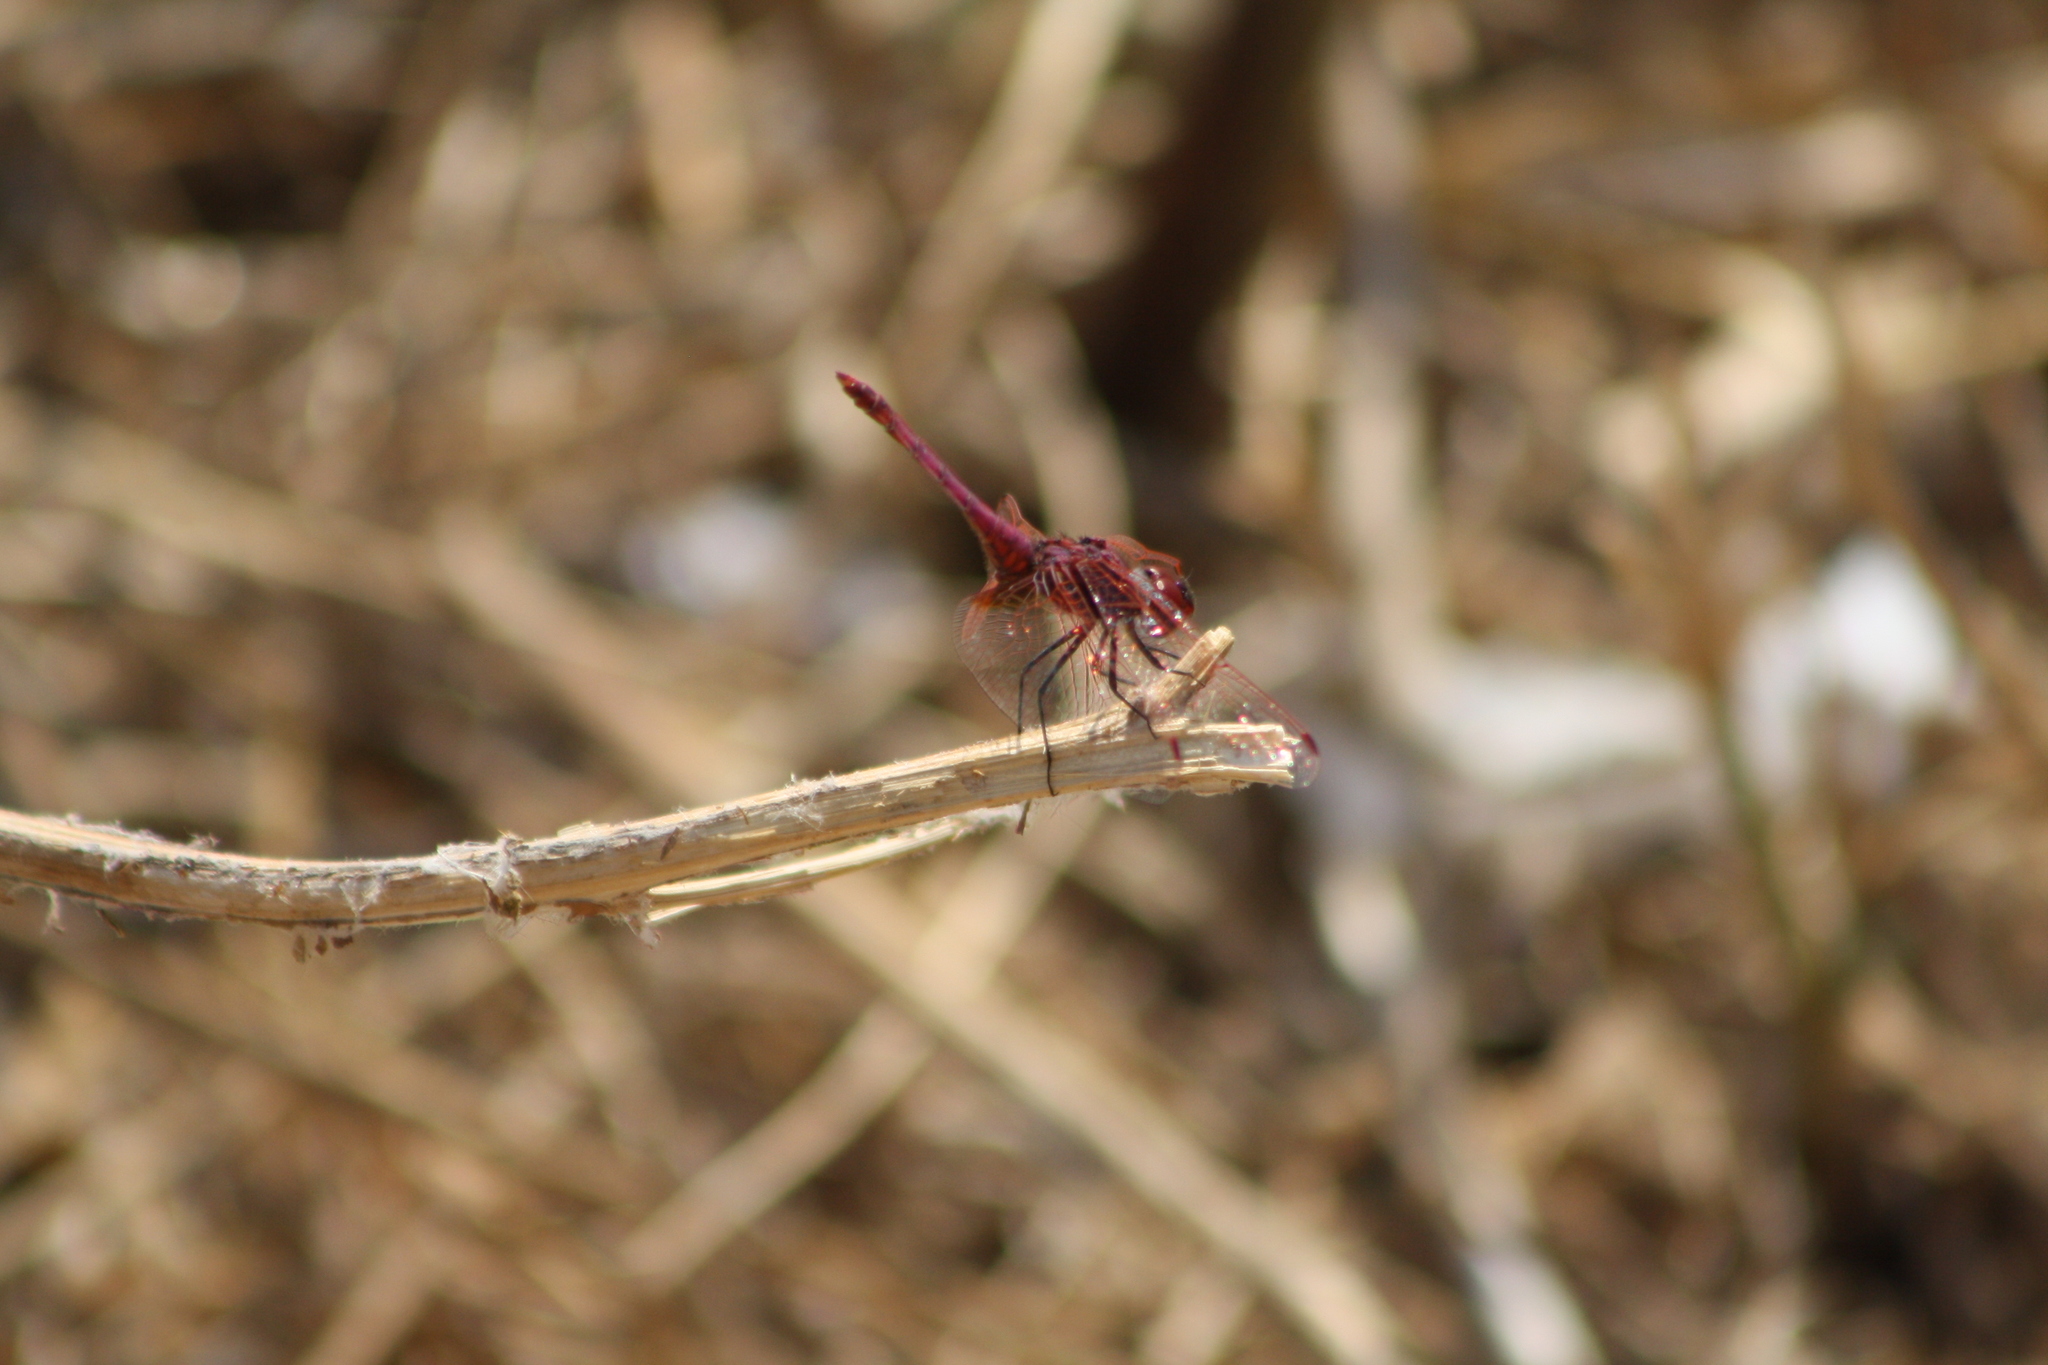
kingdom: Animalia
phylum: Arthropoda
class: Insecta
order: Odonata
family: Libellulidae
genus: Trithemis
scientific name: Trithemis annulata
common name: Violet dropwing
